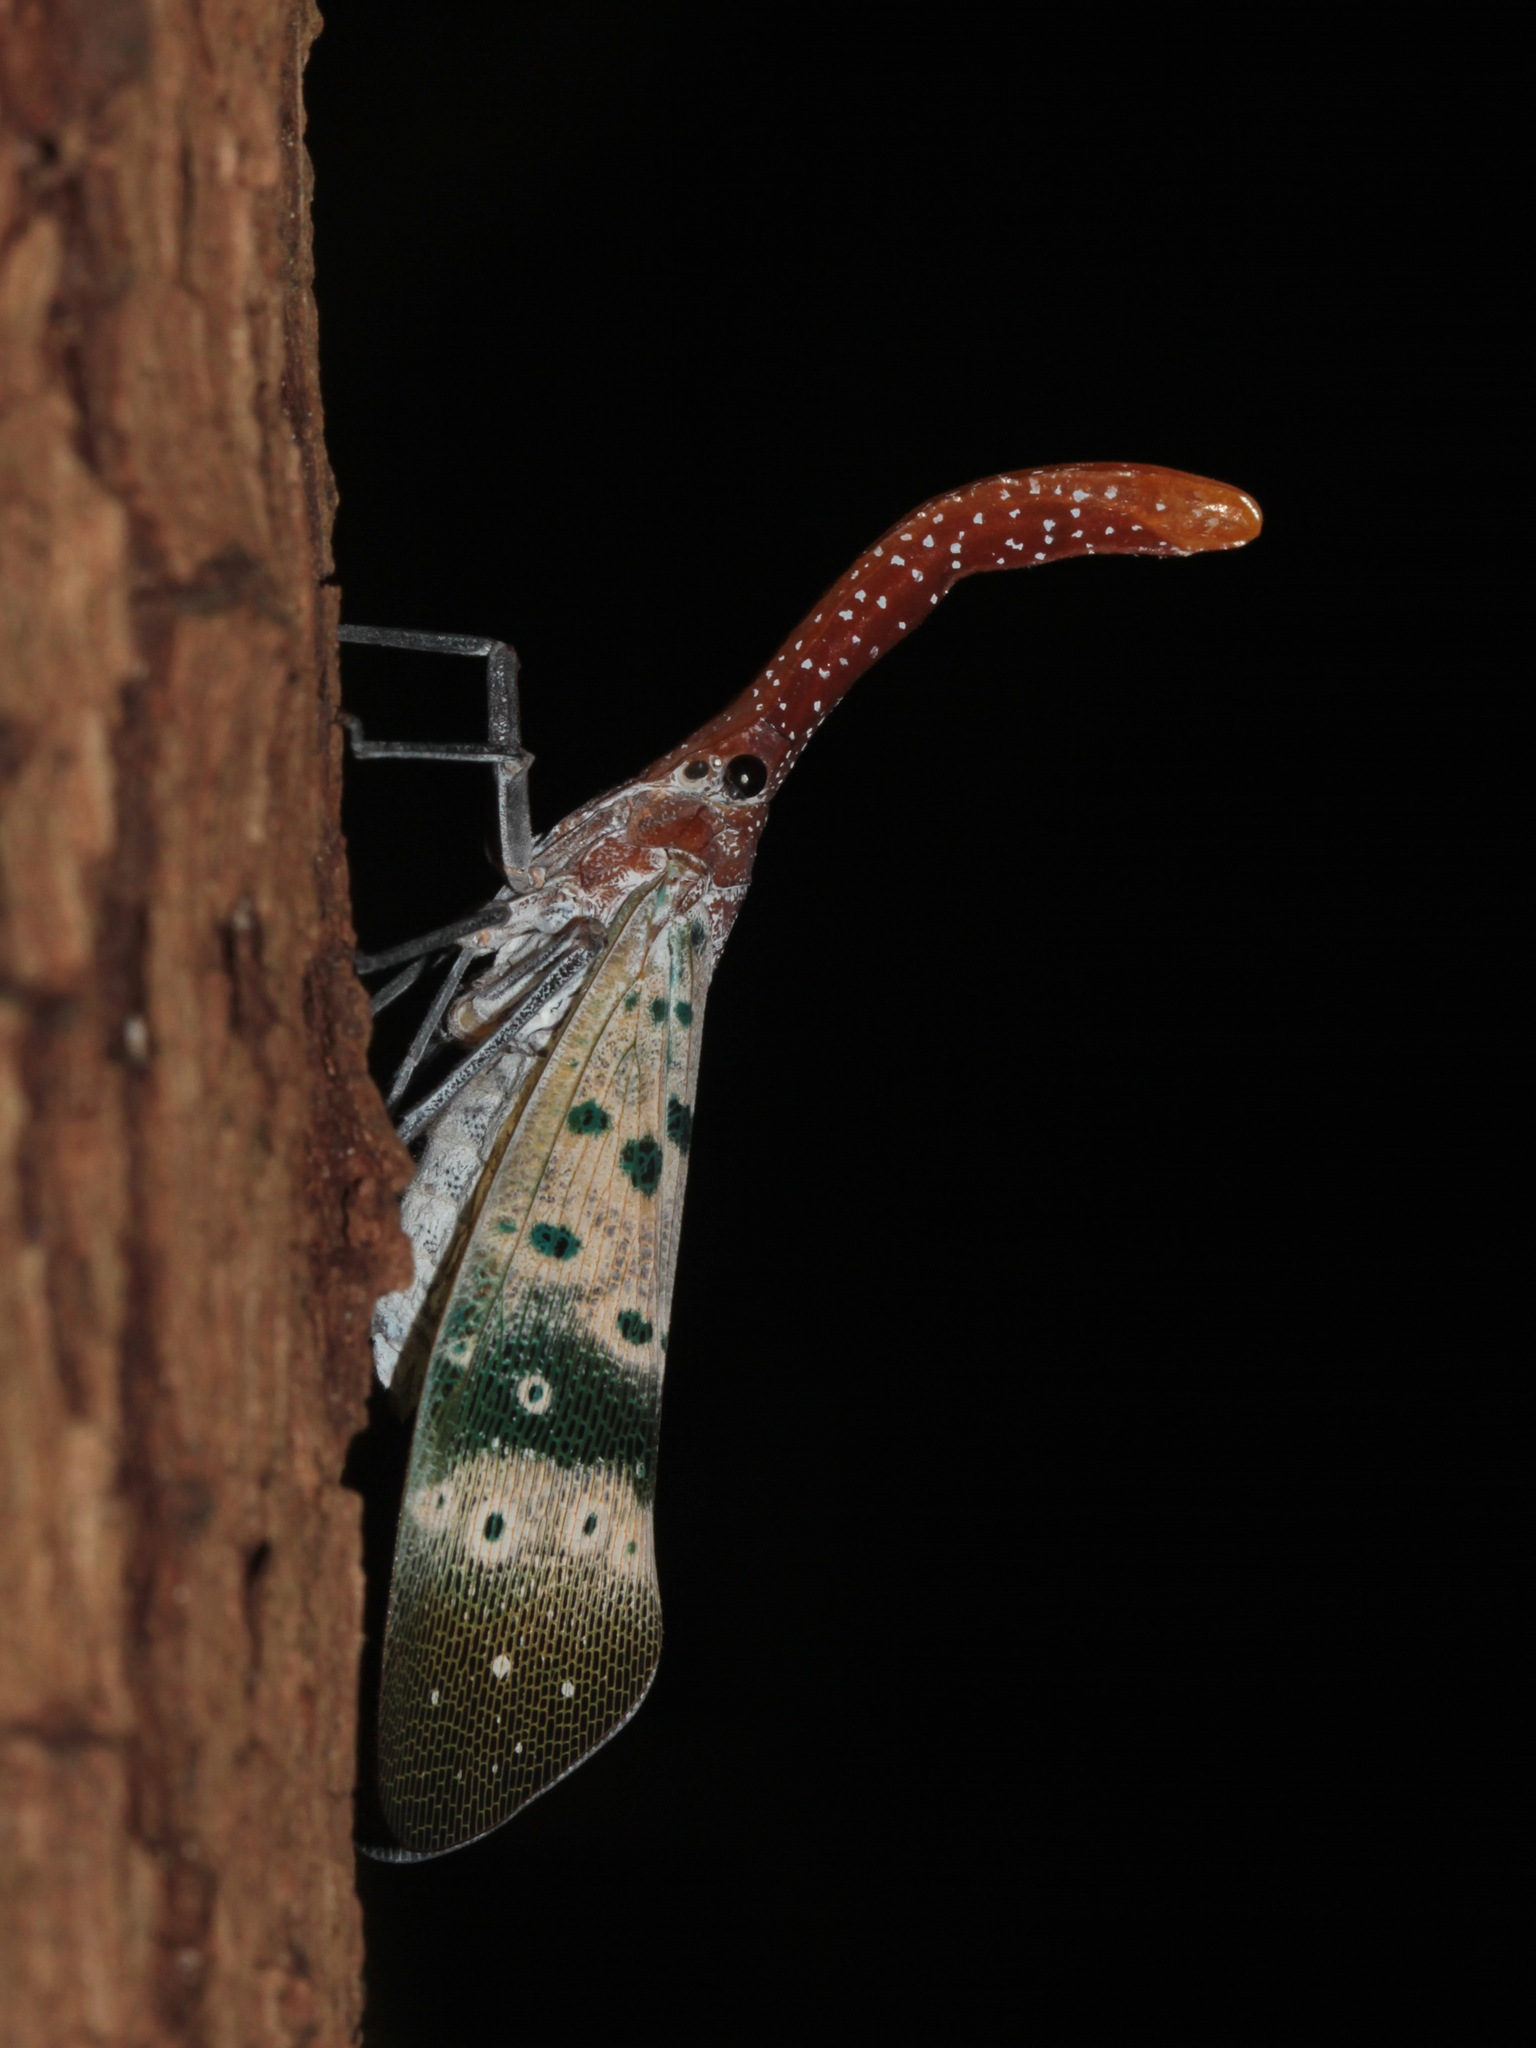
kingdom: Animalia
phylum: Arthropoda
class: Insecta
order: Hemiptera
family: Fulgoridae
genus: Pyrops
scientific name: Pyrops ducalis
